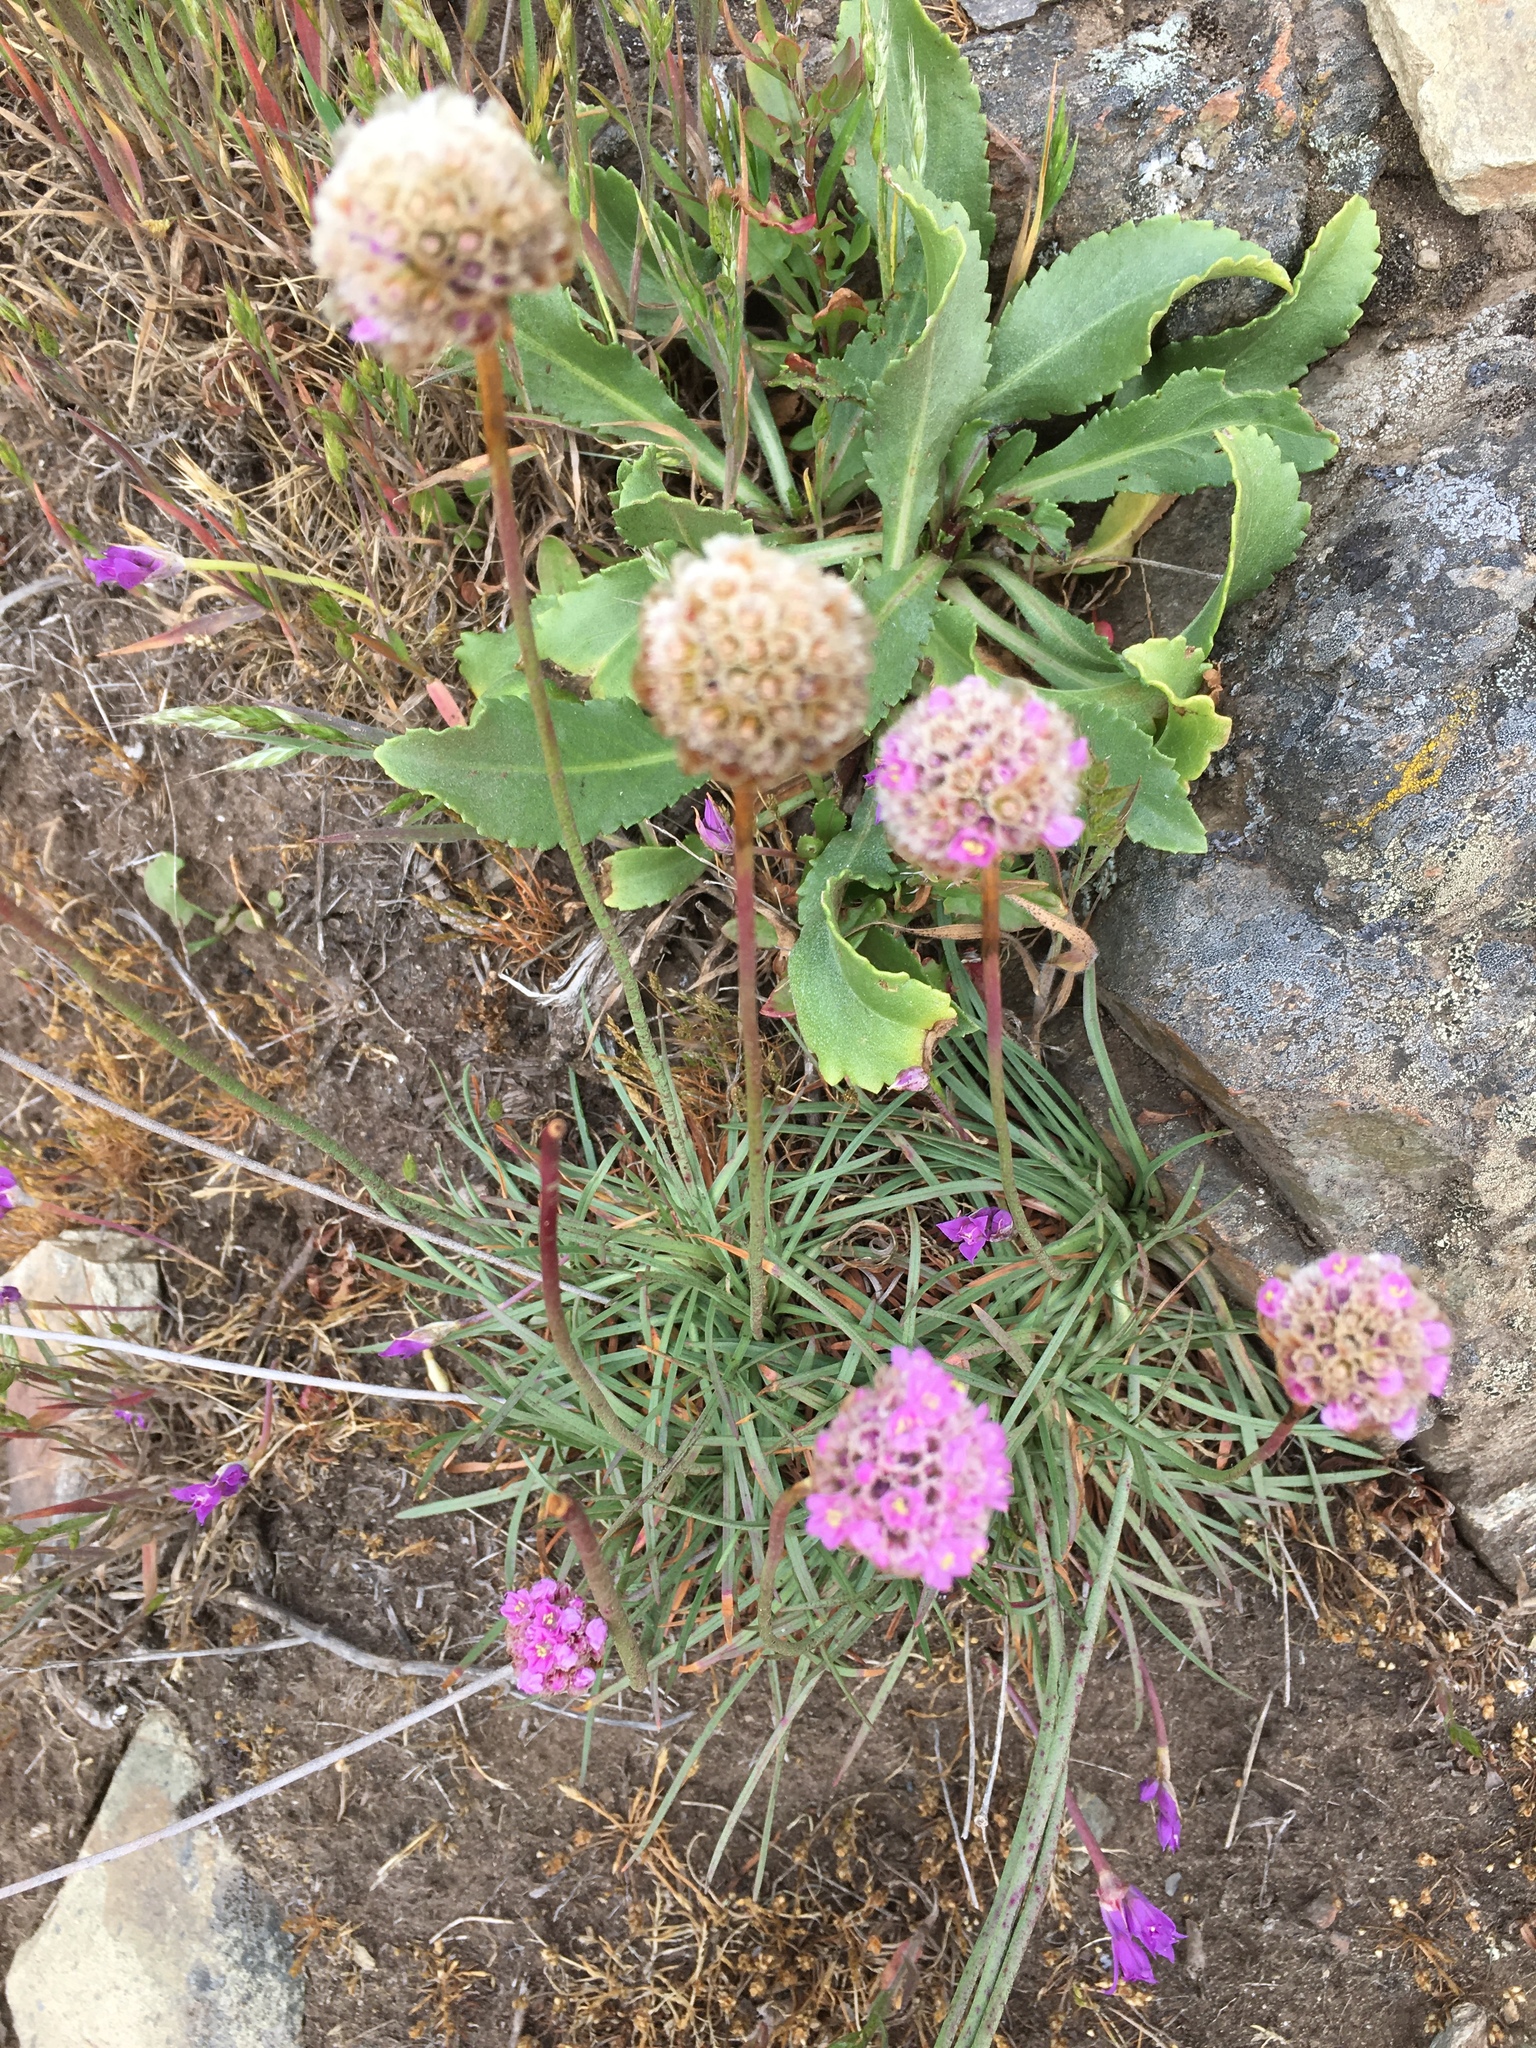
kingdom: Plantae
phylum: Tracheophyta
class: Magnoliopsida
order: Caryophyllales
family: Plumbaginaceae
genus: Armeria
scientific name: Armeria maritima
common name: Thrift
